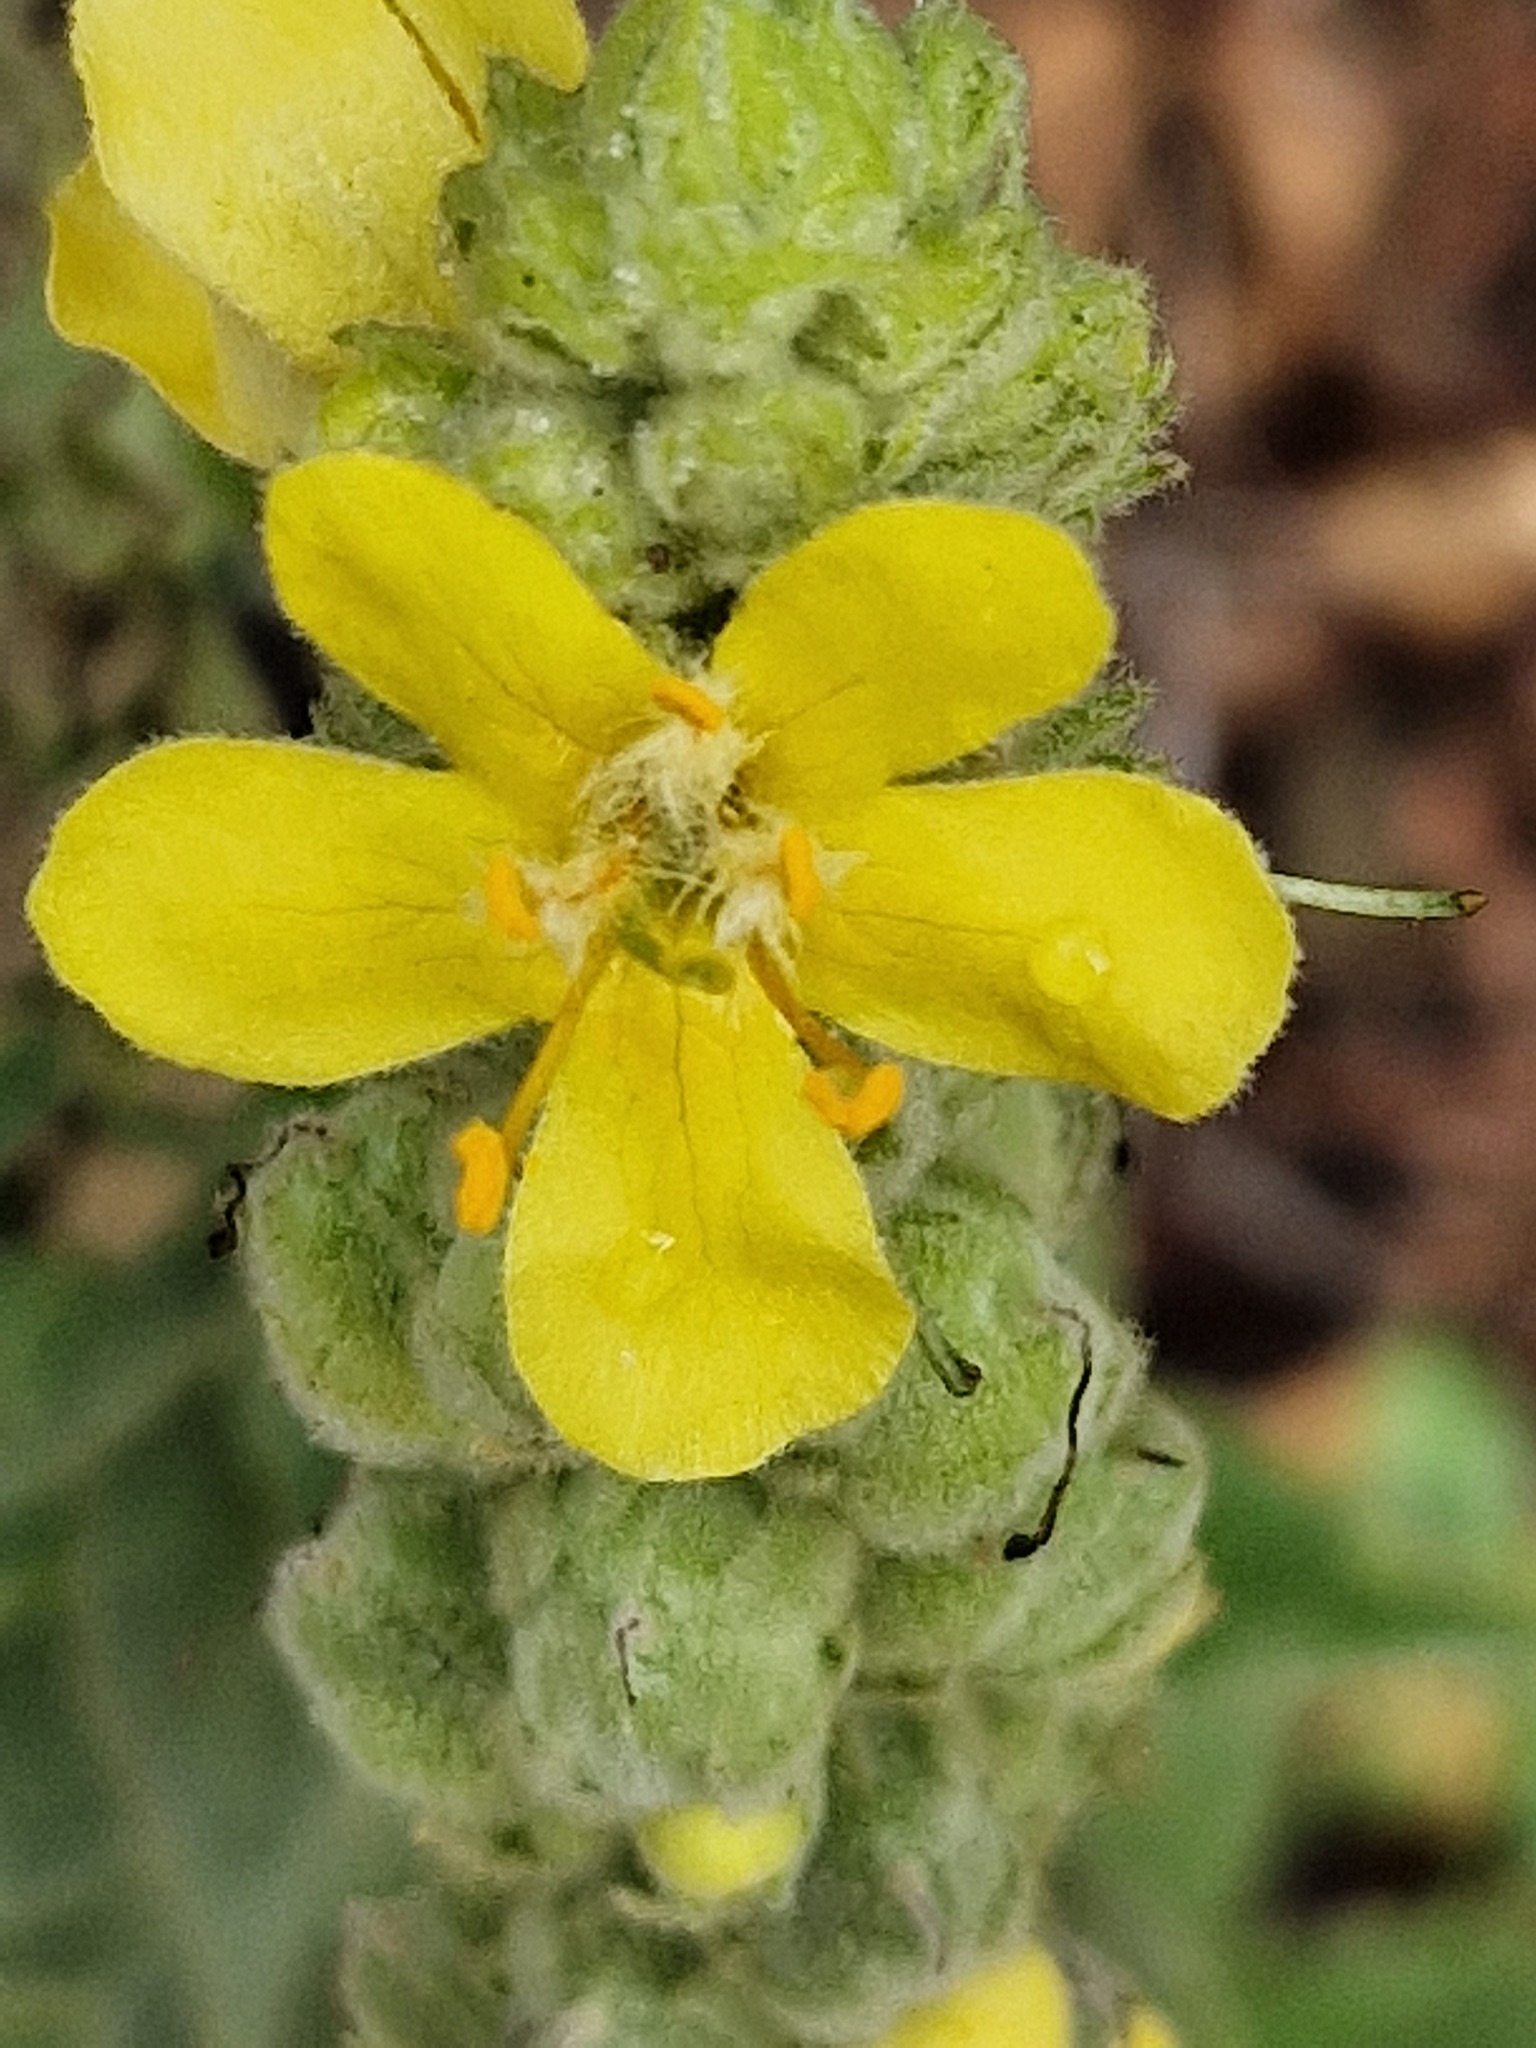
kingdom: Plantae
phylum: Tracheophyta
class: Magnoliopsida
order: Lamiales
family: Scrophulariaceae
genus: Verbascum
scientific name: Verbascum thapsus
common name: Common mullein
